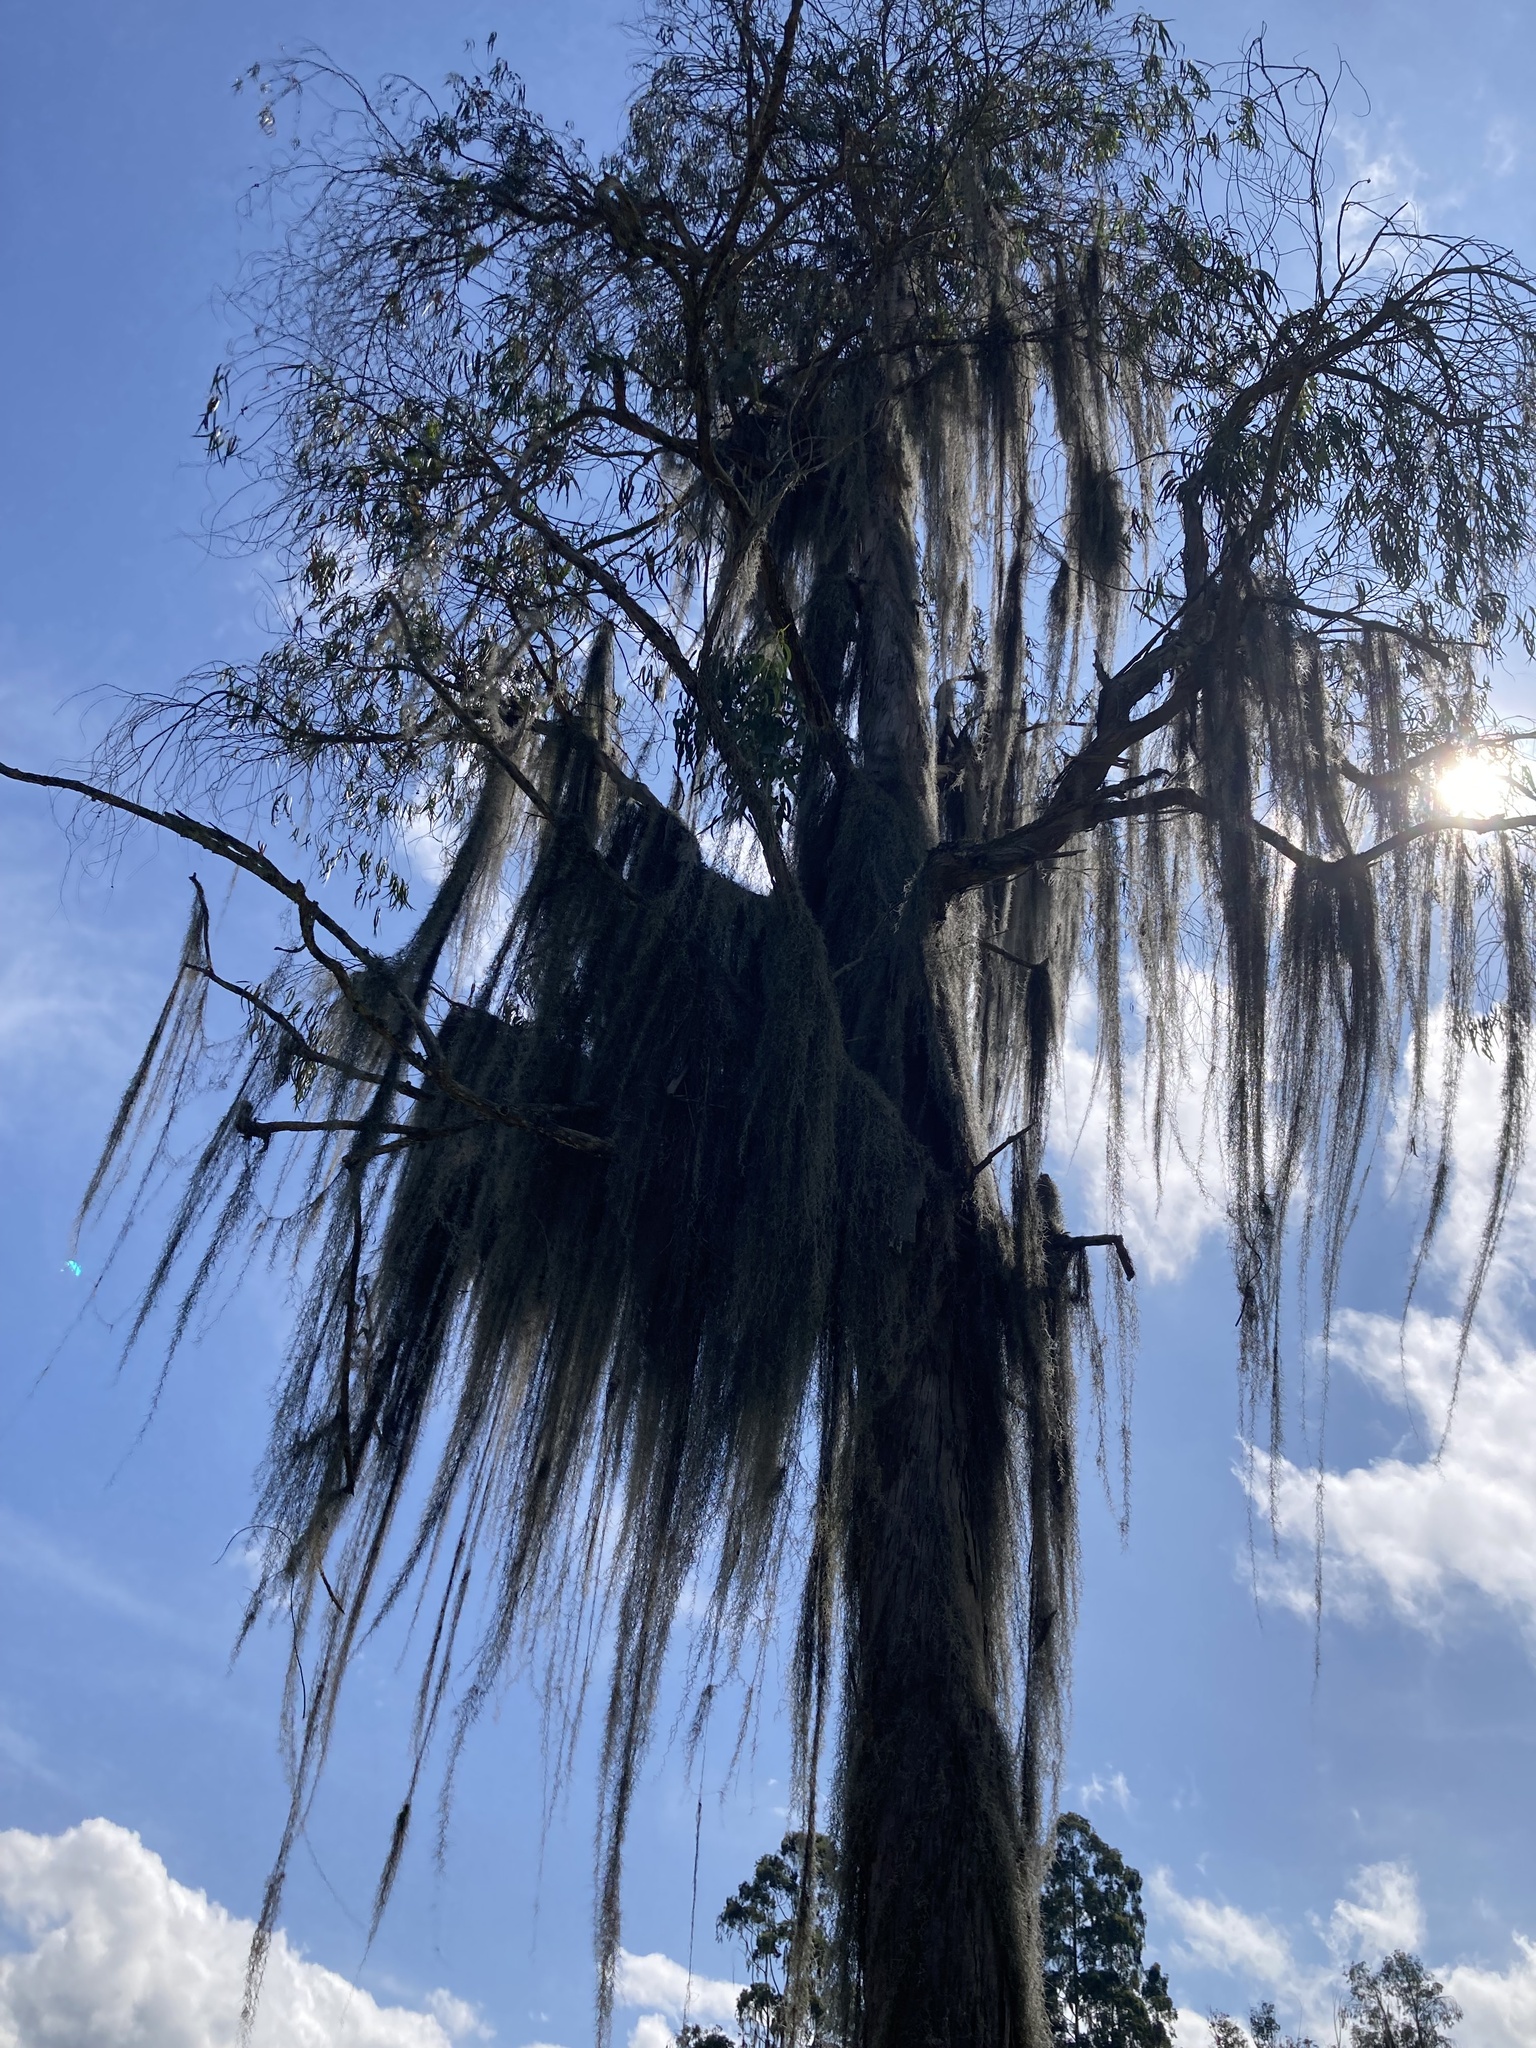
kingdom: Plantae
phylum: Tracheophyta
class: Liliopsida
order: Poales
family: Bromeliaceae
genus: Tillandsia
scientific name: Tillandsia usneoides
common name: Spanish moss
